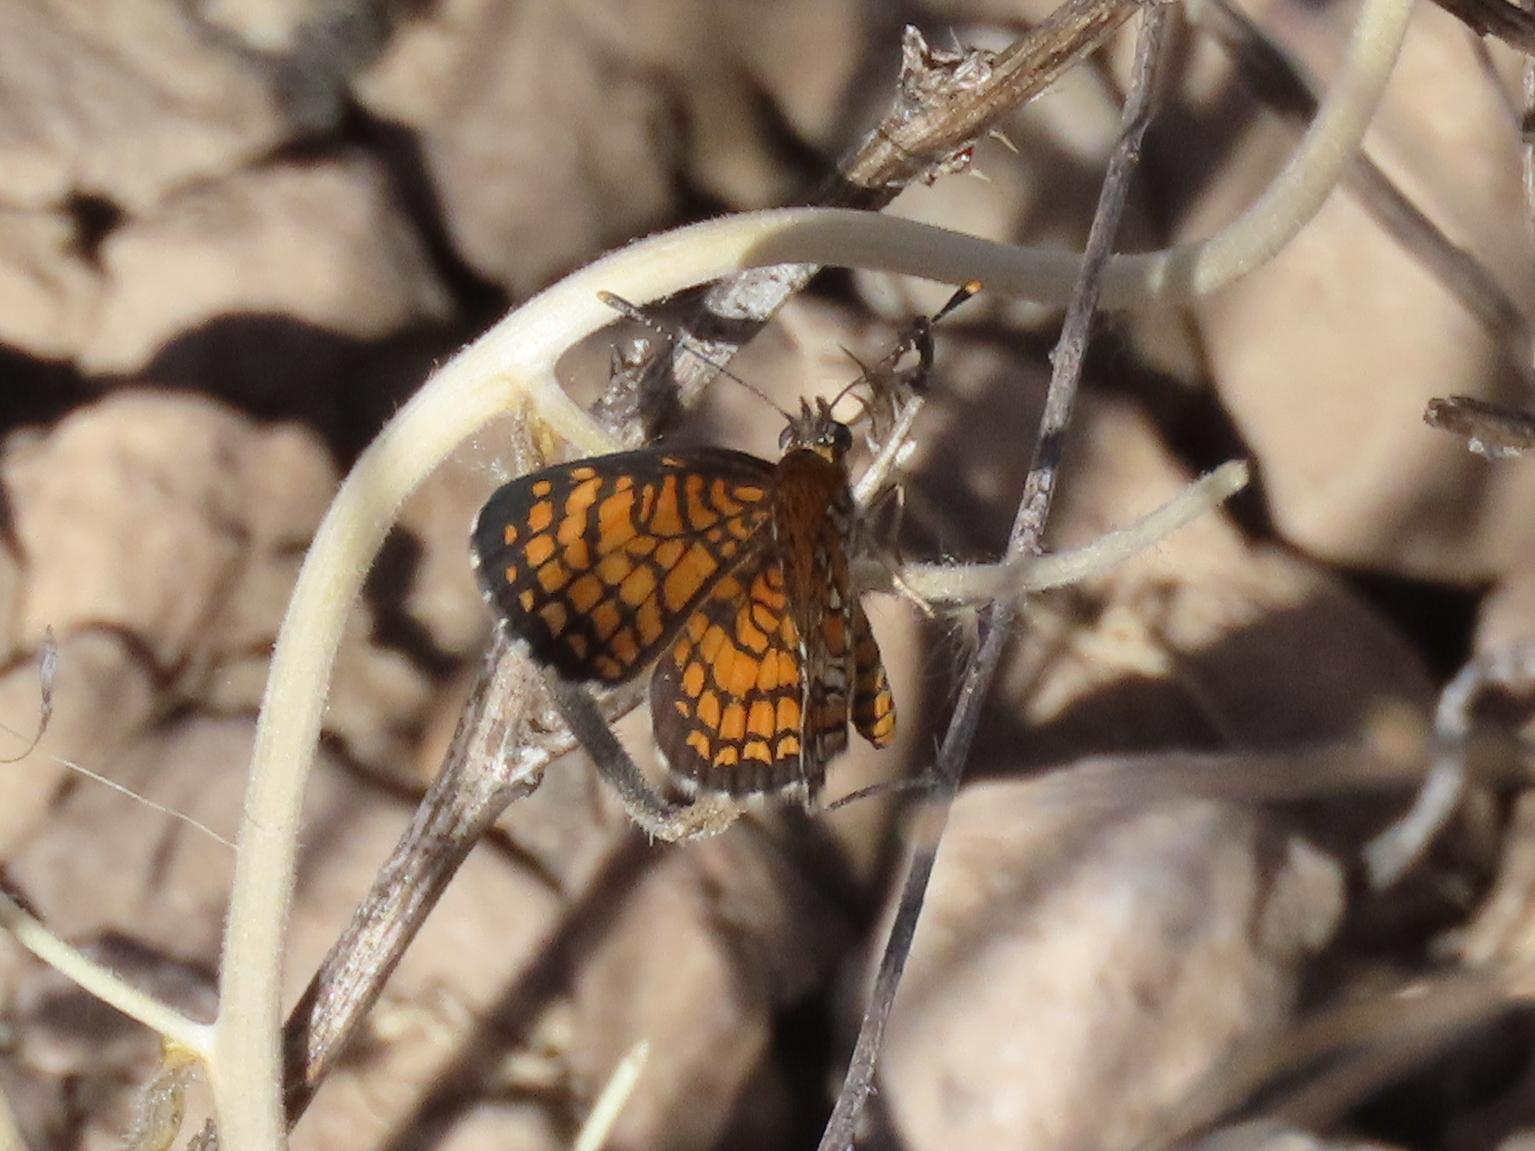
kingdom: Animalia
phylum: Arthropoda
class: Insecta
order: Lepidoptera
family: Nymphalidae
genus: Texola
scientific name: Texola
